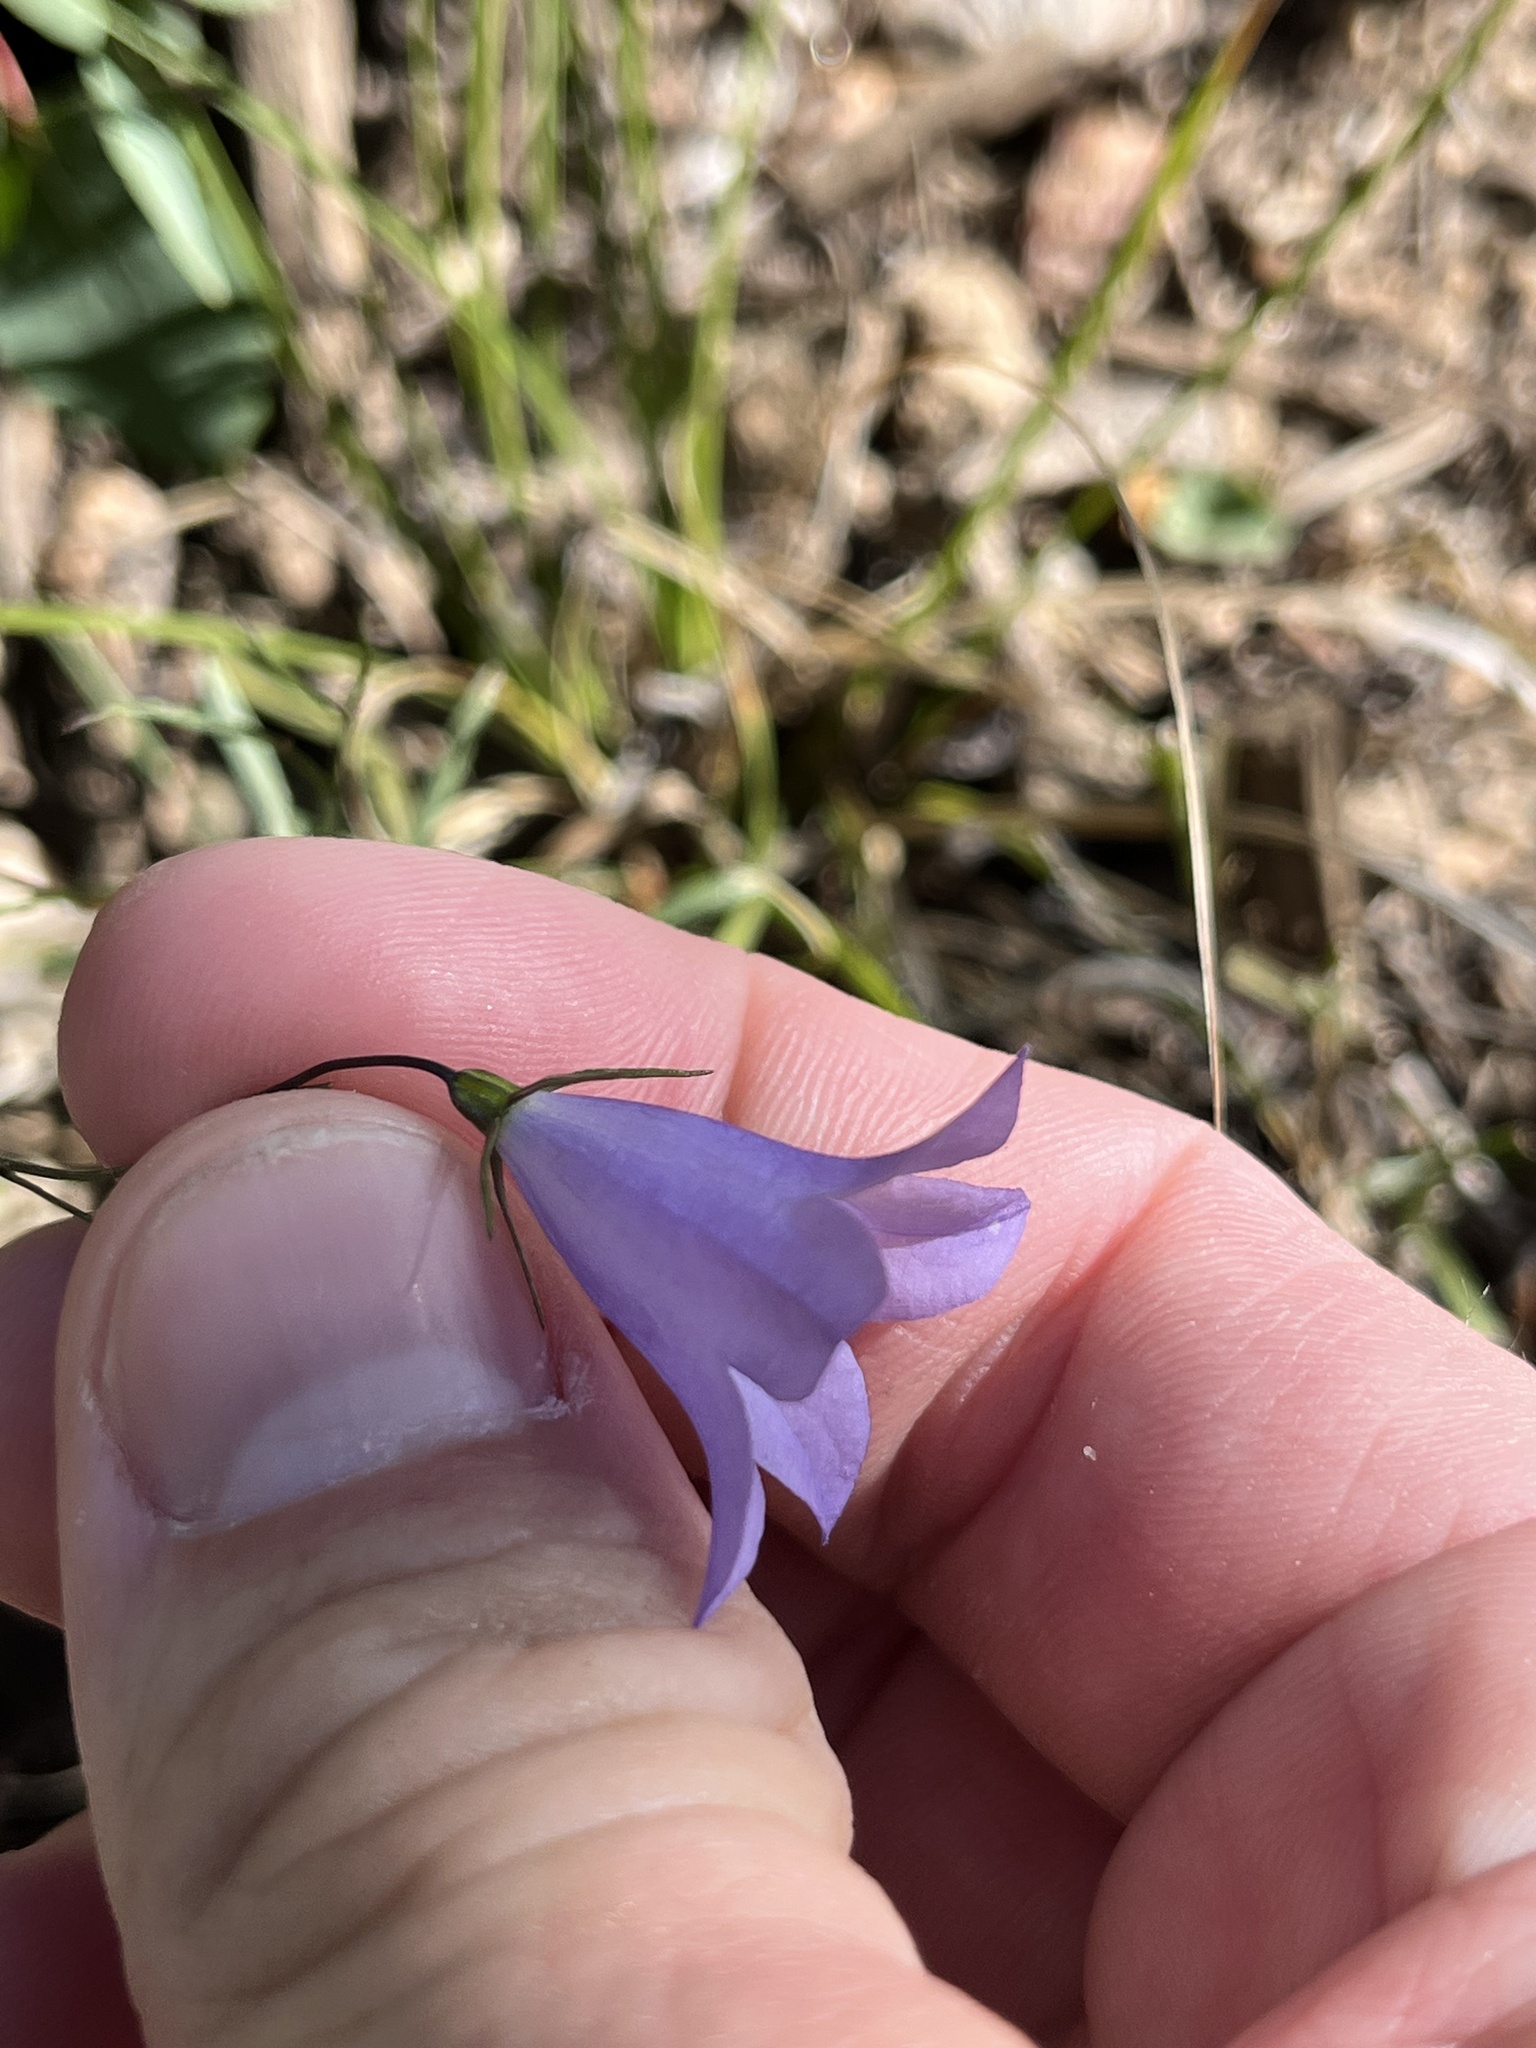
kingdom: Plantae
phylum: Tracheophyta
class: Magnoliopsida
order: Asterales
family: Campanulaceae
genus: Campanula
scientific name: Campanula petiolata
